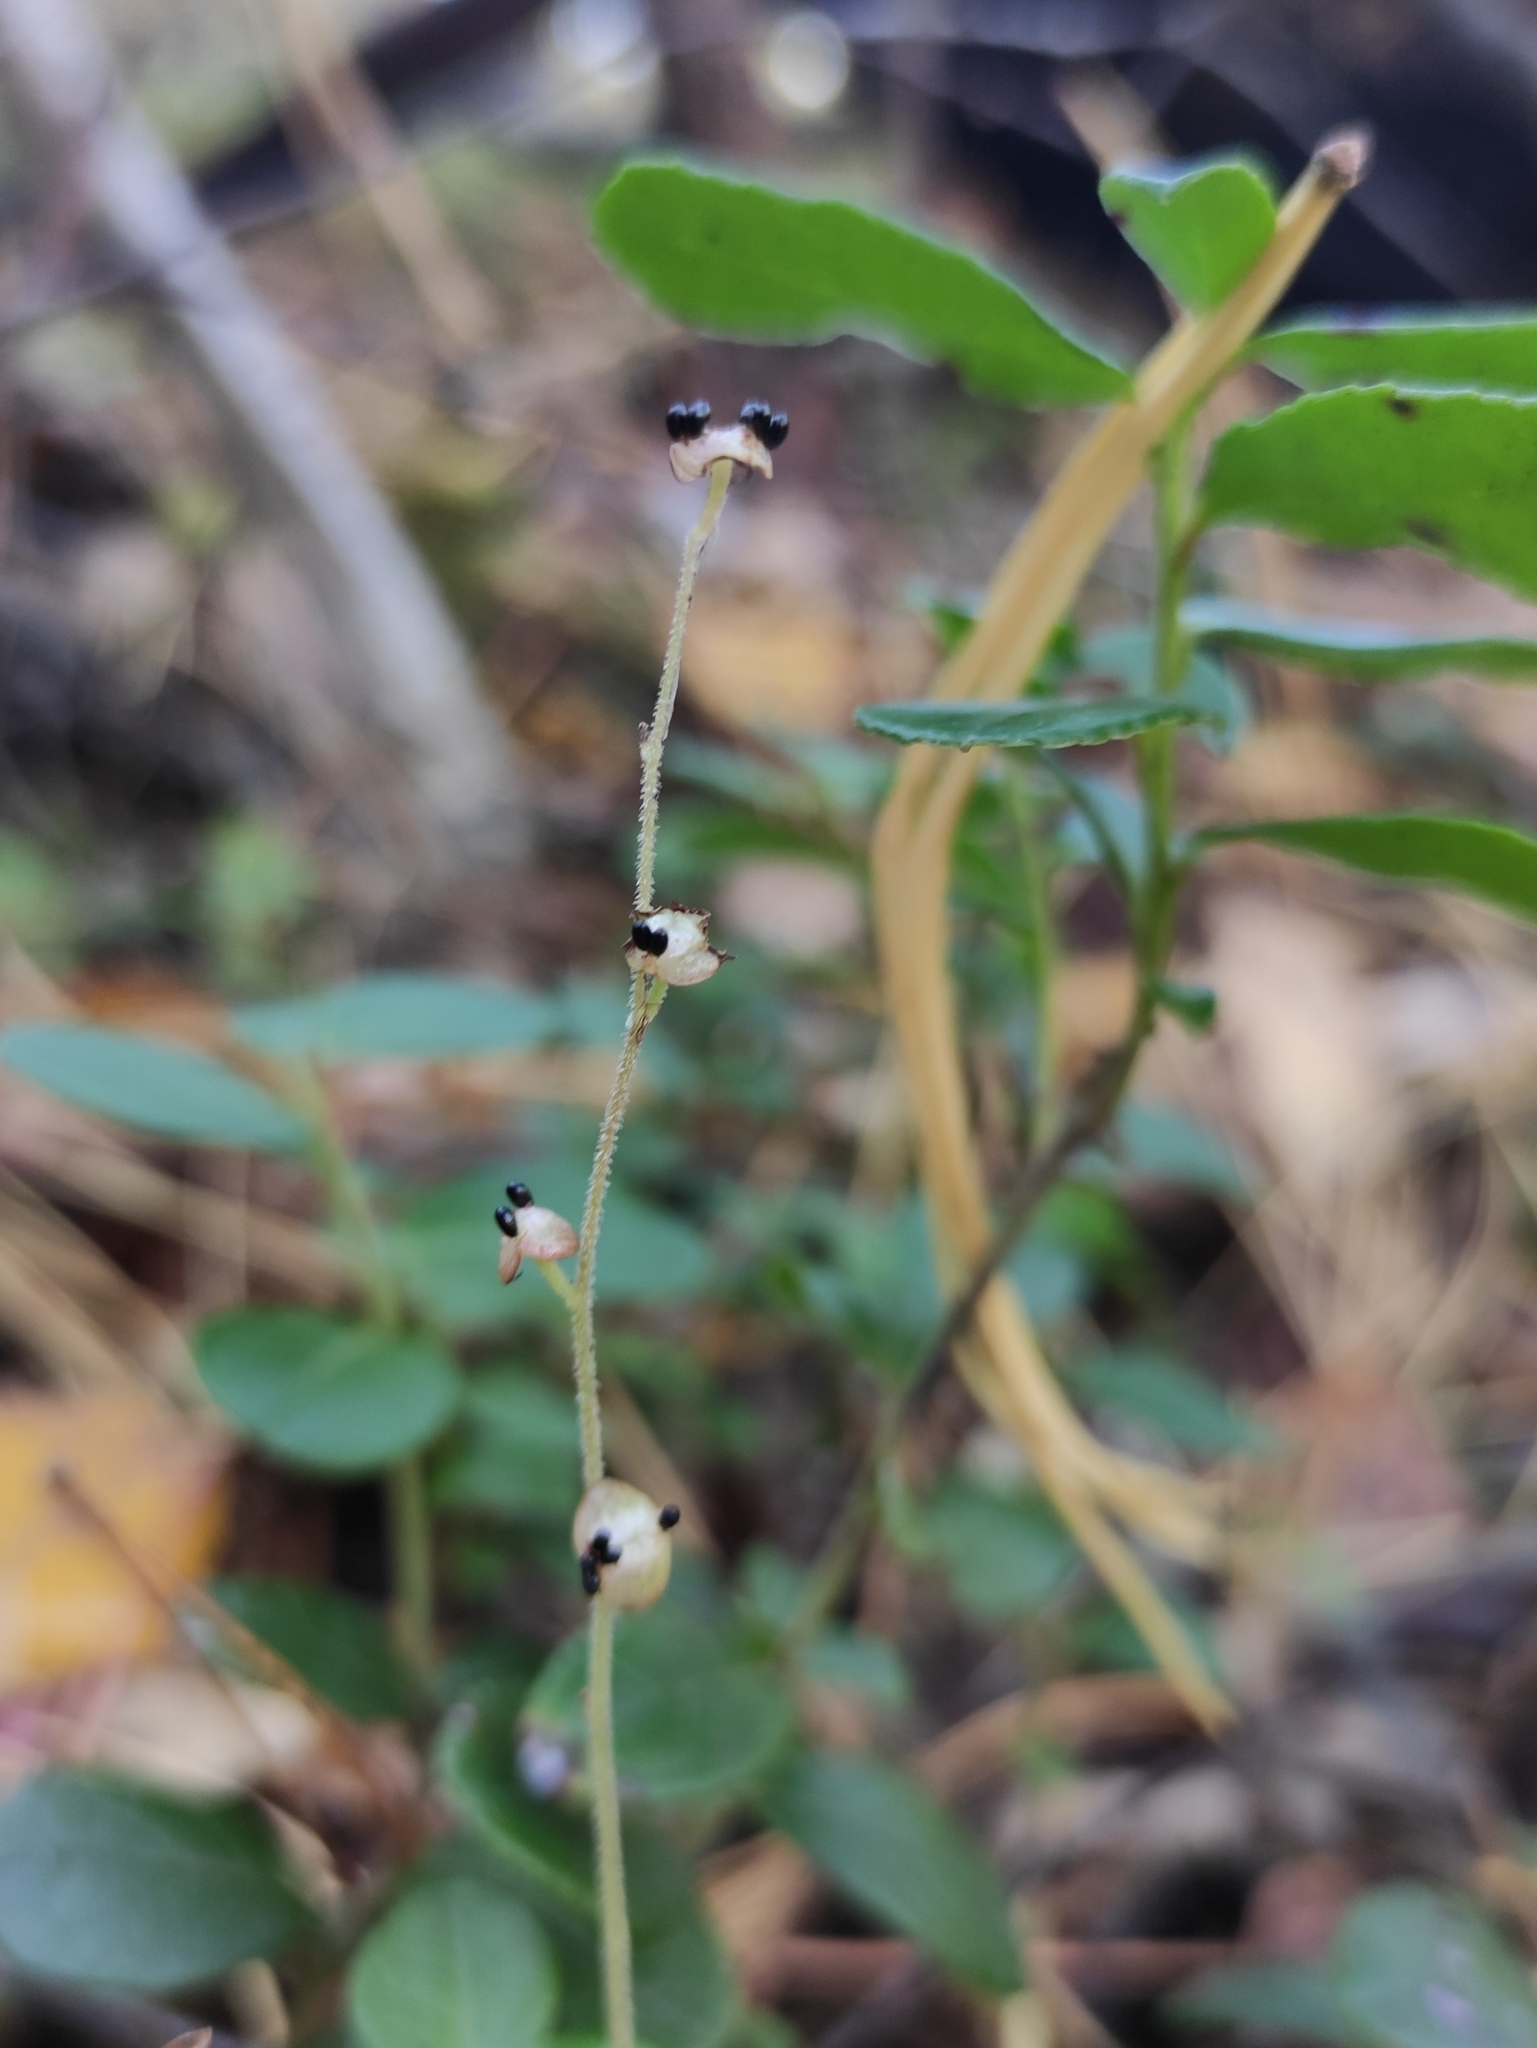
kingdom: Plantae
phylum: Tracheophyta
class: Magnoliopsida
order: Saxifragales
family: Saxifragaceae
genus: Mitella
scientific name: Mitella nuda
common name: Bare-stemmed bishop's-cap
